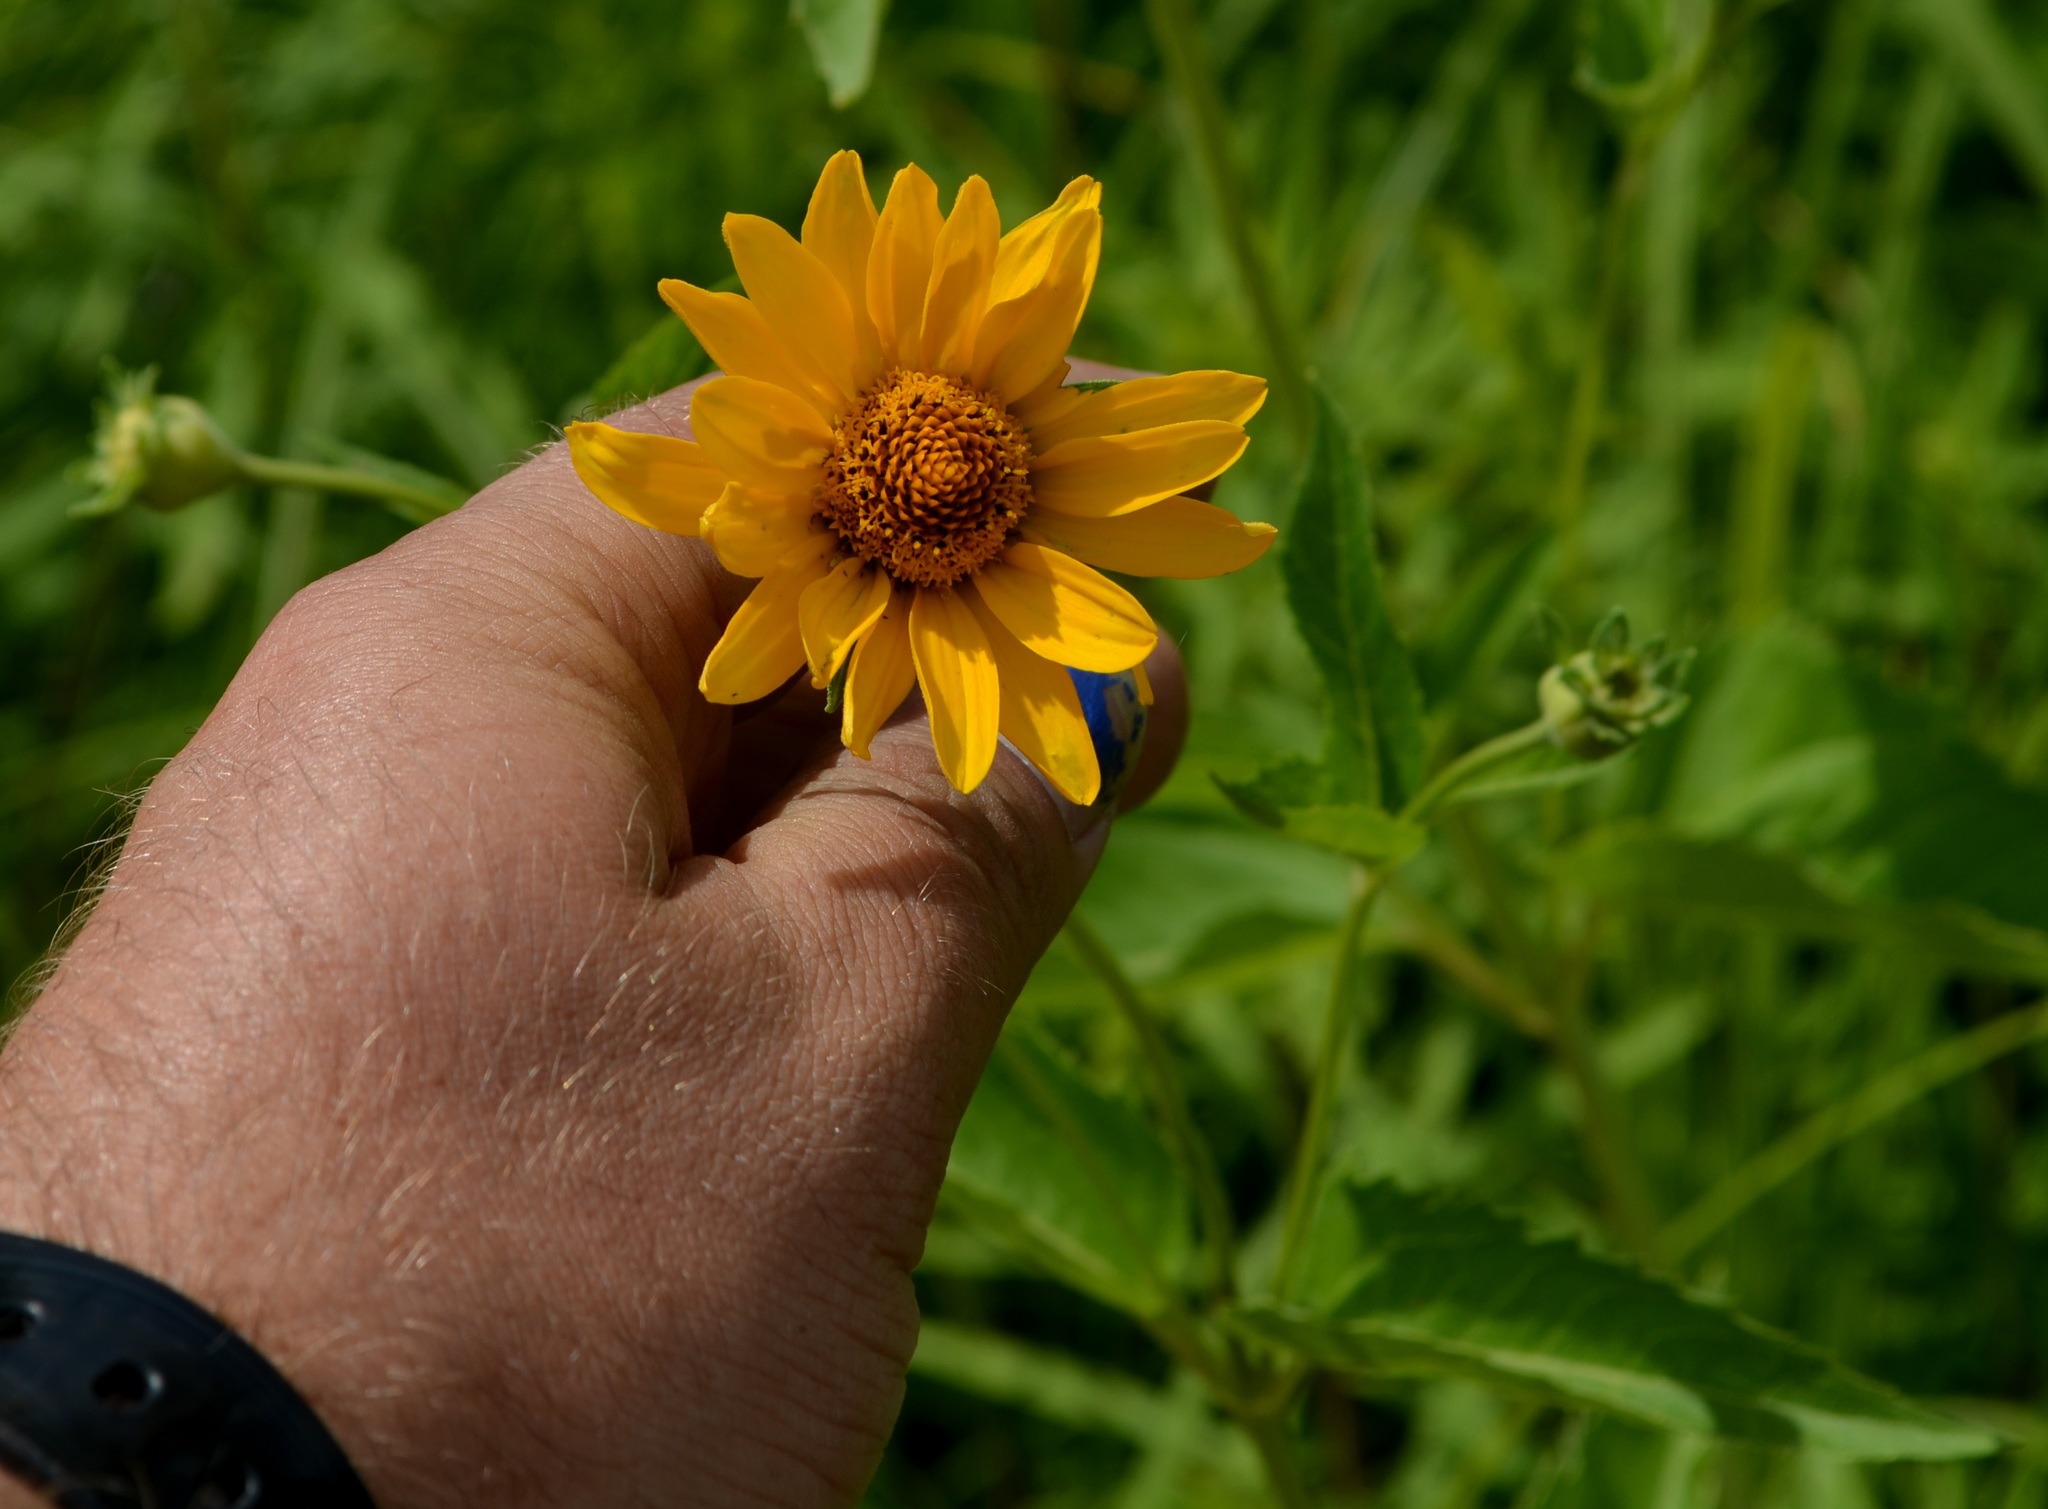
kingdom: Plantae
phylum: Tracheophyta
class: Magnoliopsida
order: Asterales
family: Asteraceae
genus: Heliopsis
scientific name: Heliopsis helianthoides
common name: False sunflower
